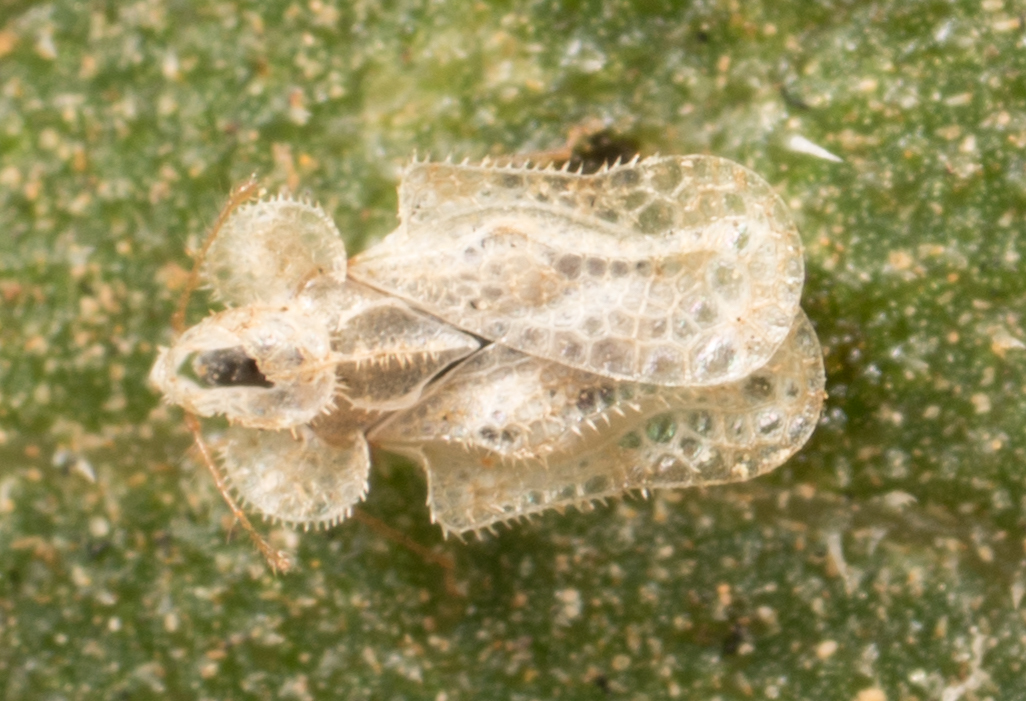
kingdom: Animalia
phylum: Arthropoda
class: Insecta
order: Hemiptera
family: Tingidae
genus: Corythucha
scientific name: Corythucha morrilli
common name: Morrill lace bug
